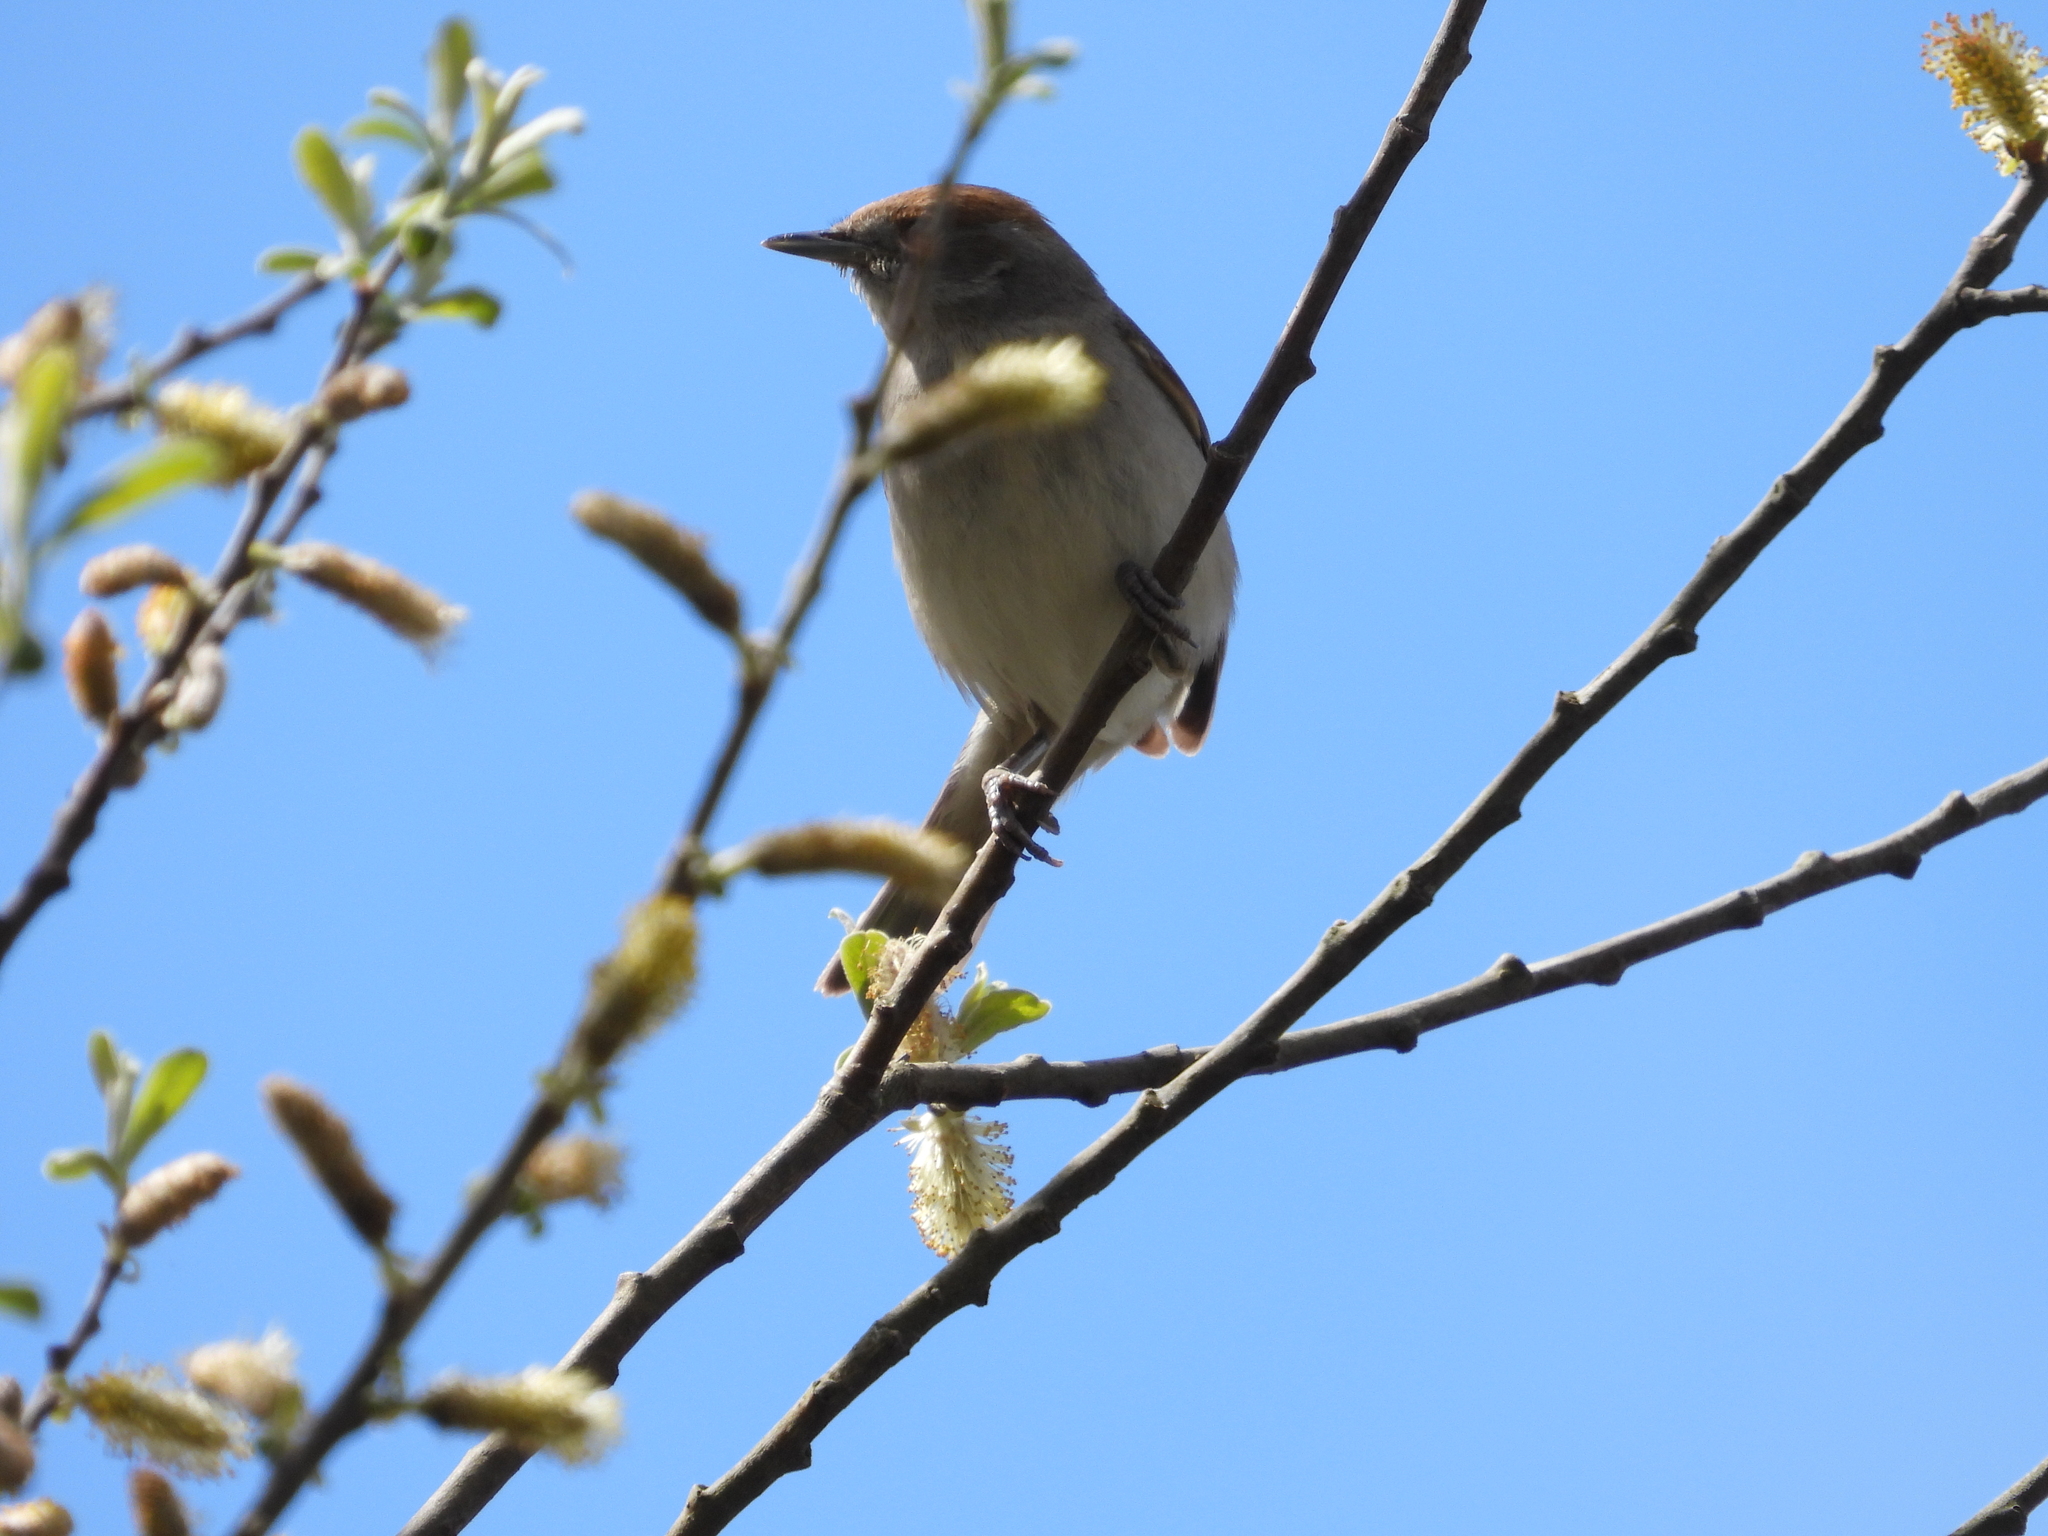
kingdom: Animalia
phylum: Chordata
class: Aves
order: Passeriformes
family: Sylviidae
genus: Sylvia
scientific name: Sylvia atricapilla
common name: Eurasian blackcap
